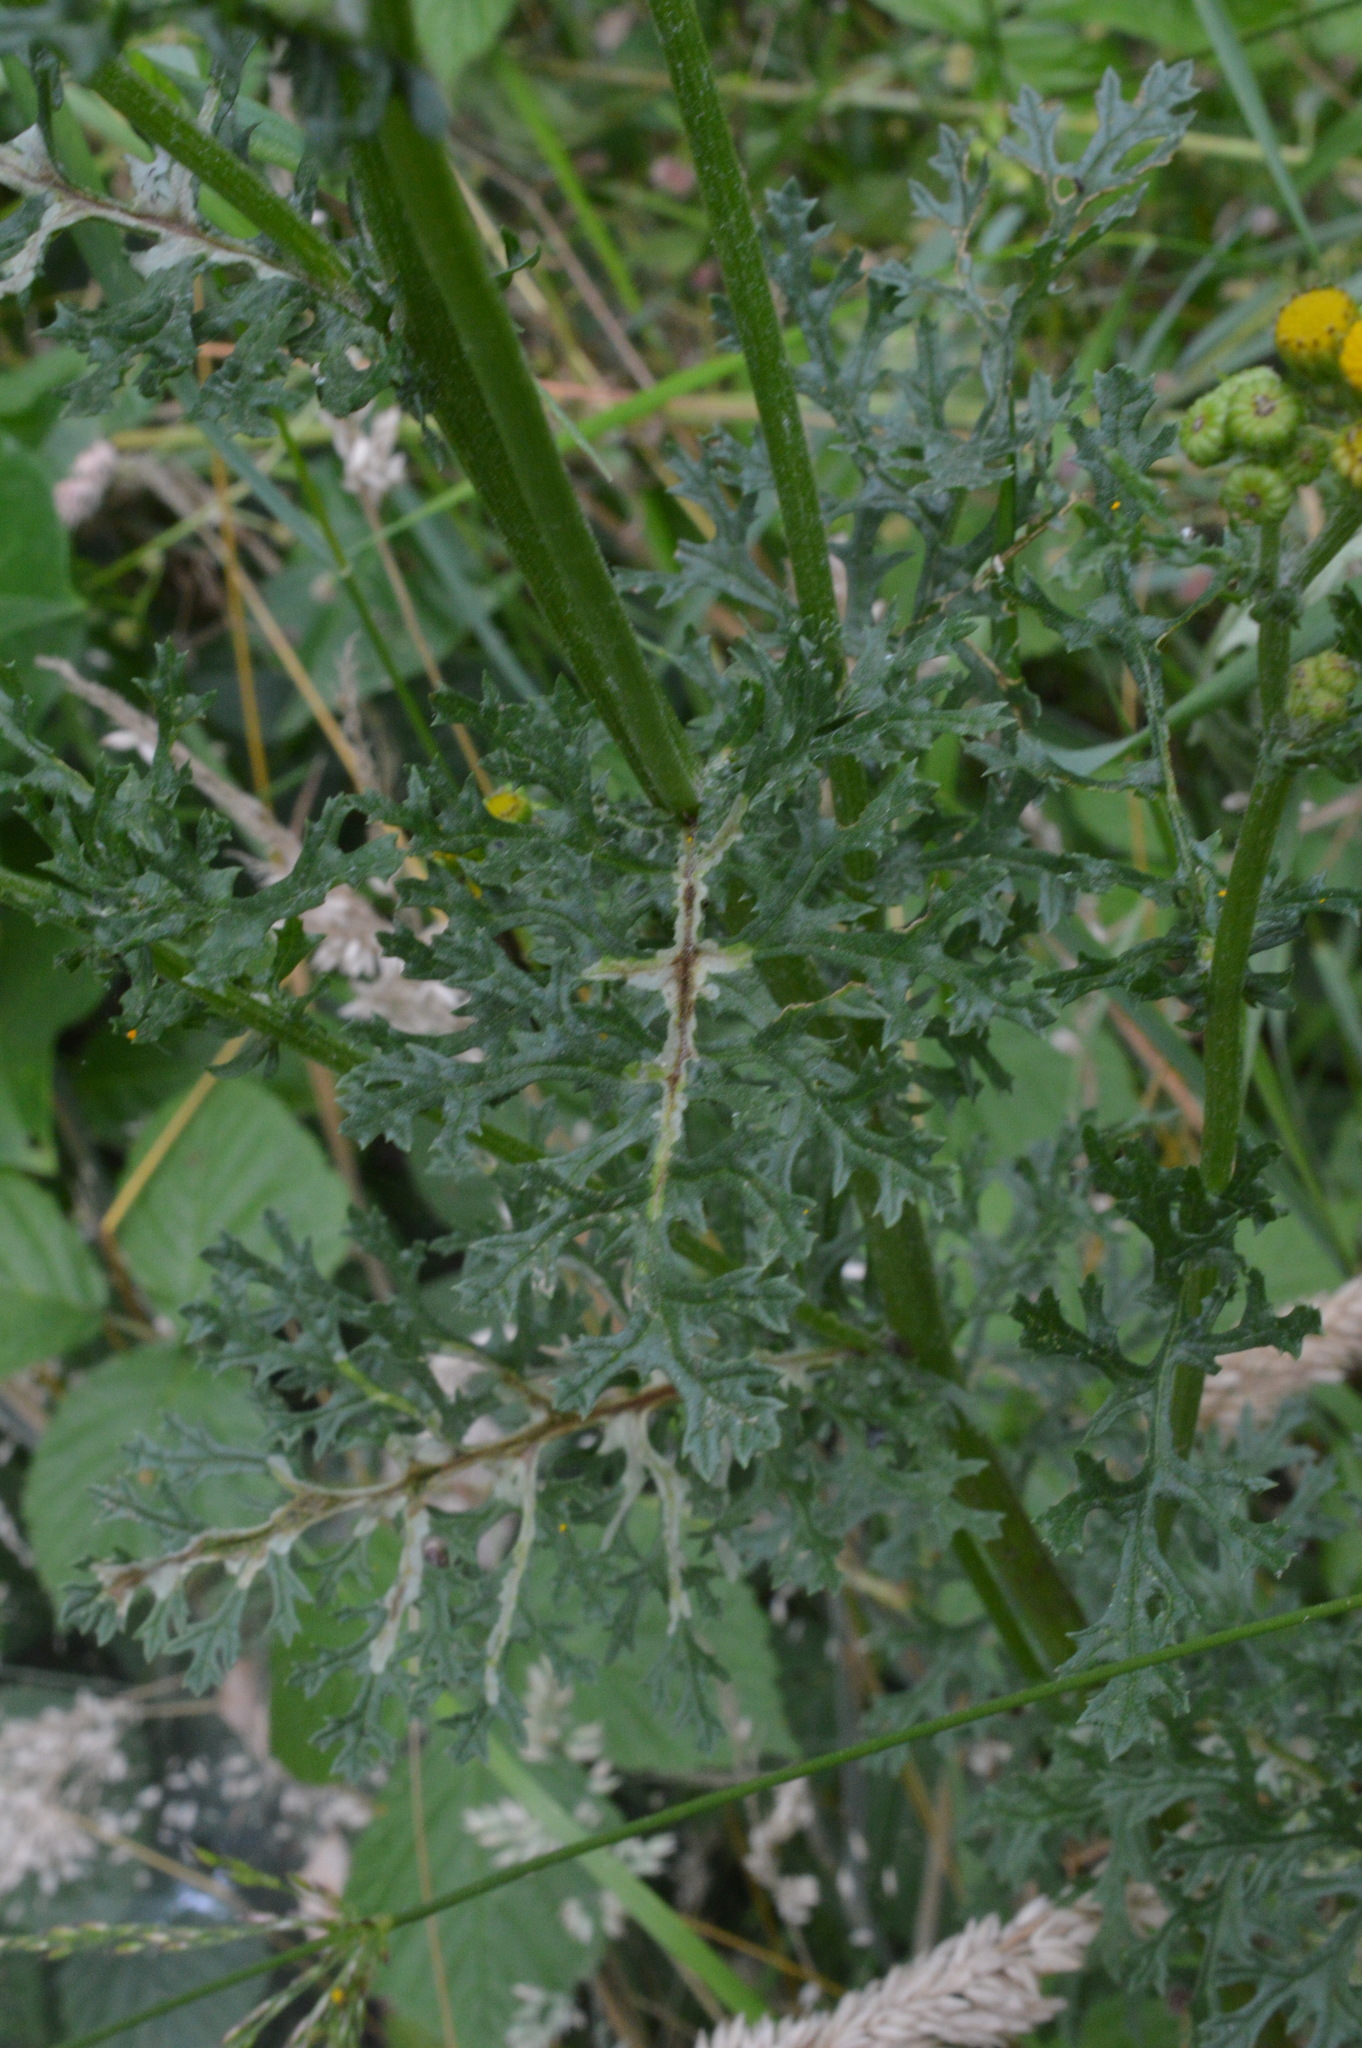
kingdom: Plantae
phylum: Tracheophyta
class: Magnoliopsida
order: Asterales
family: Asteraceae
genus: Jacobaea
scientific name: Jacobaea vulgaris
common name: Stinking willie
